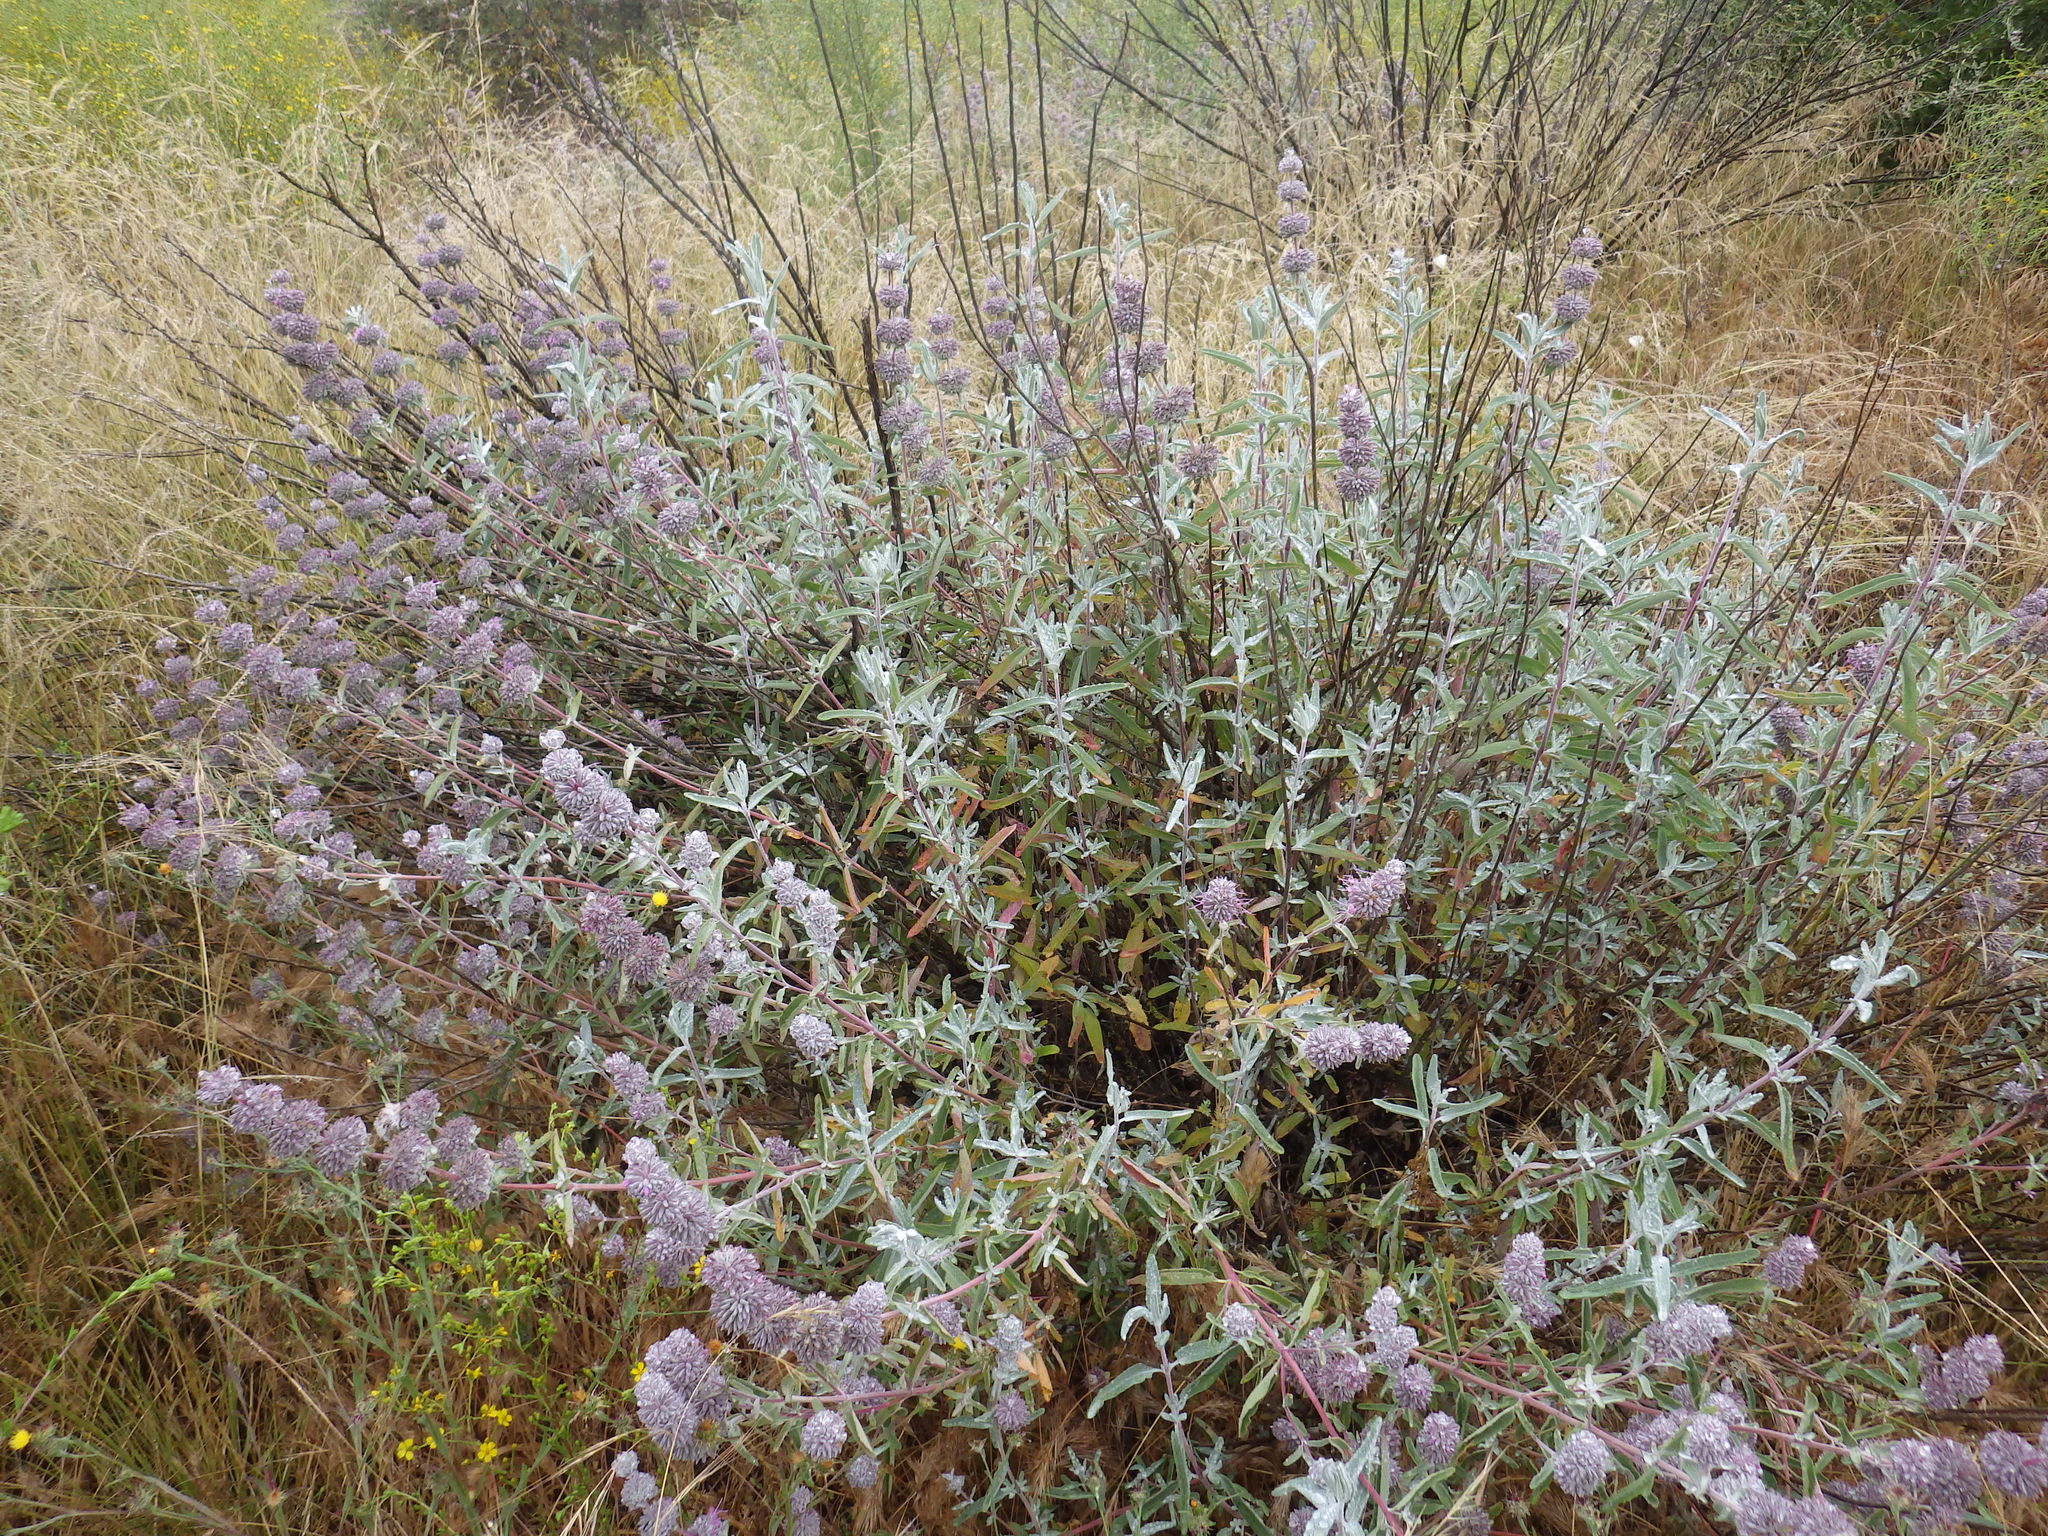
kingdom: Plantae
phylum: Tracheophyta
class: Magnoliopsida
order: Lamiales
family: Lamiaceae
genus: Salvia
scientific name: Salvia leucophylla
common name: Purple sage
